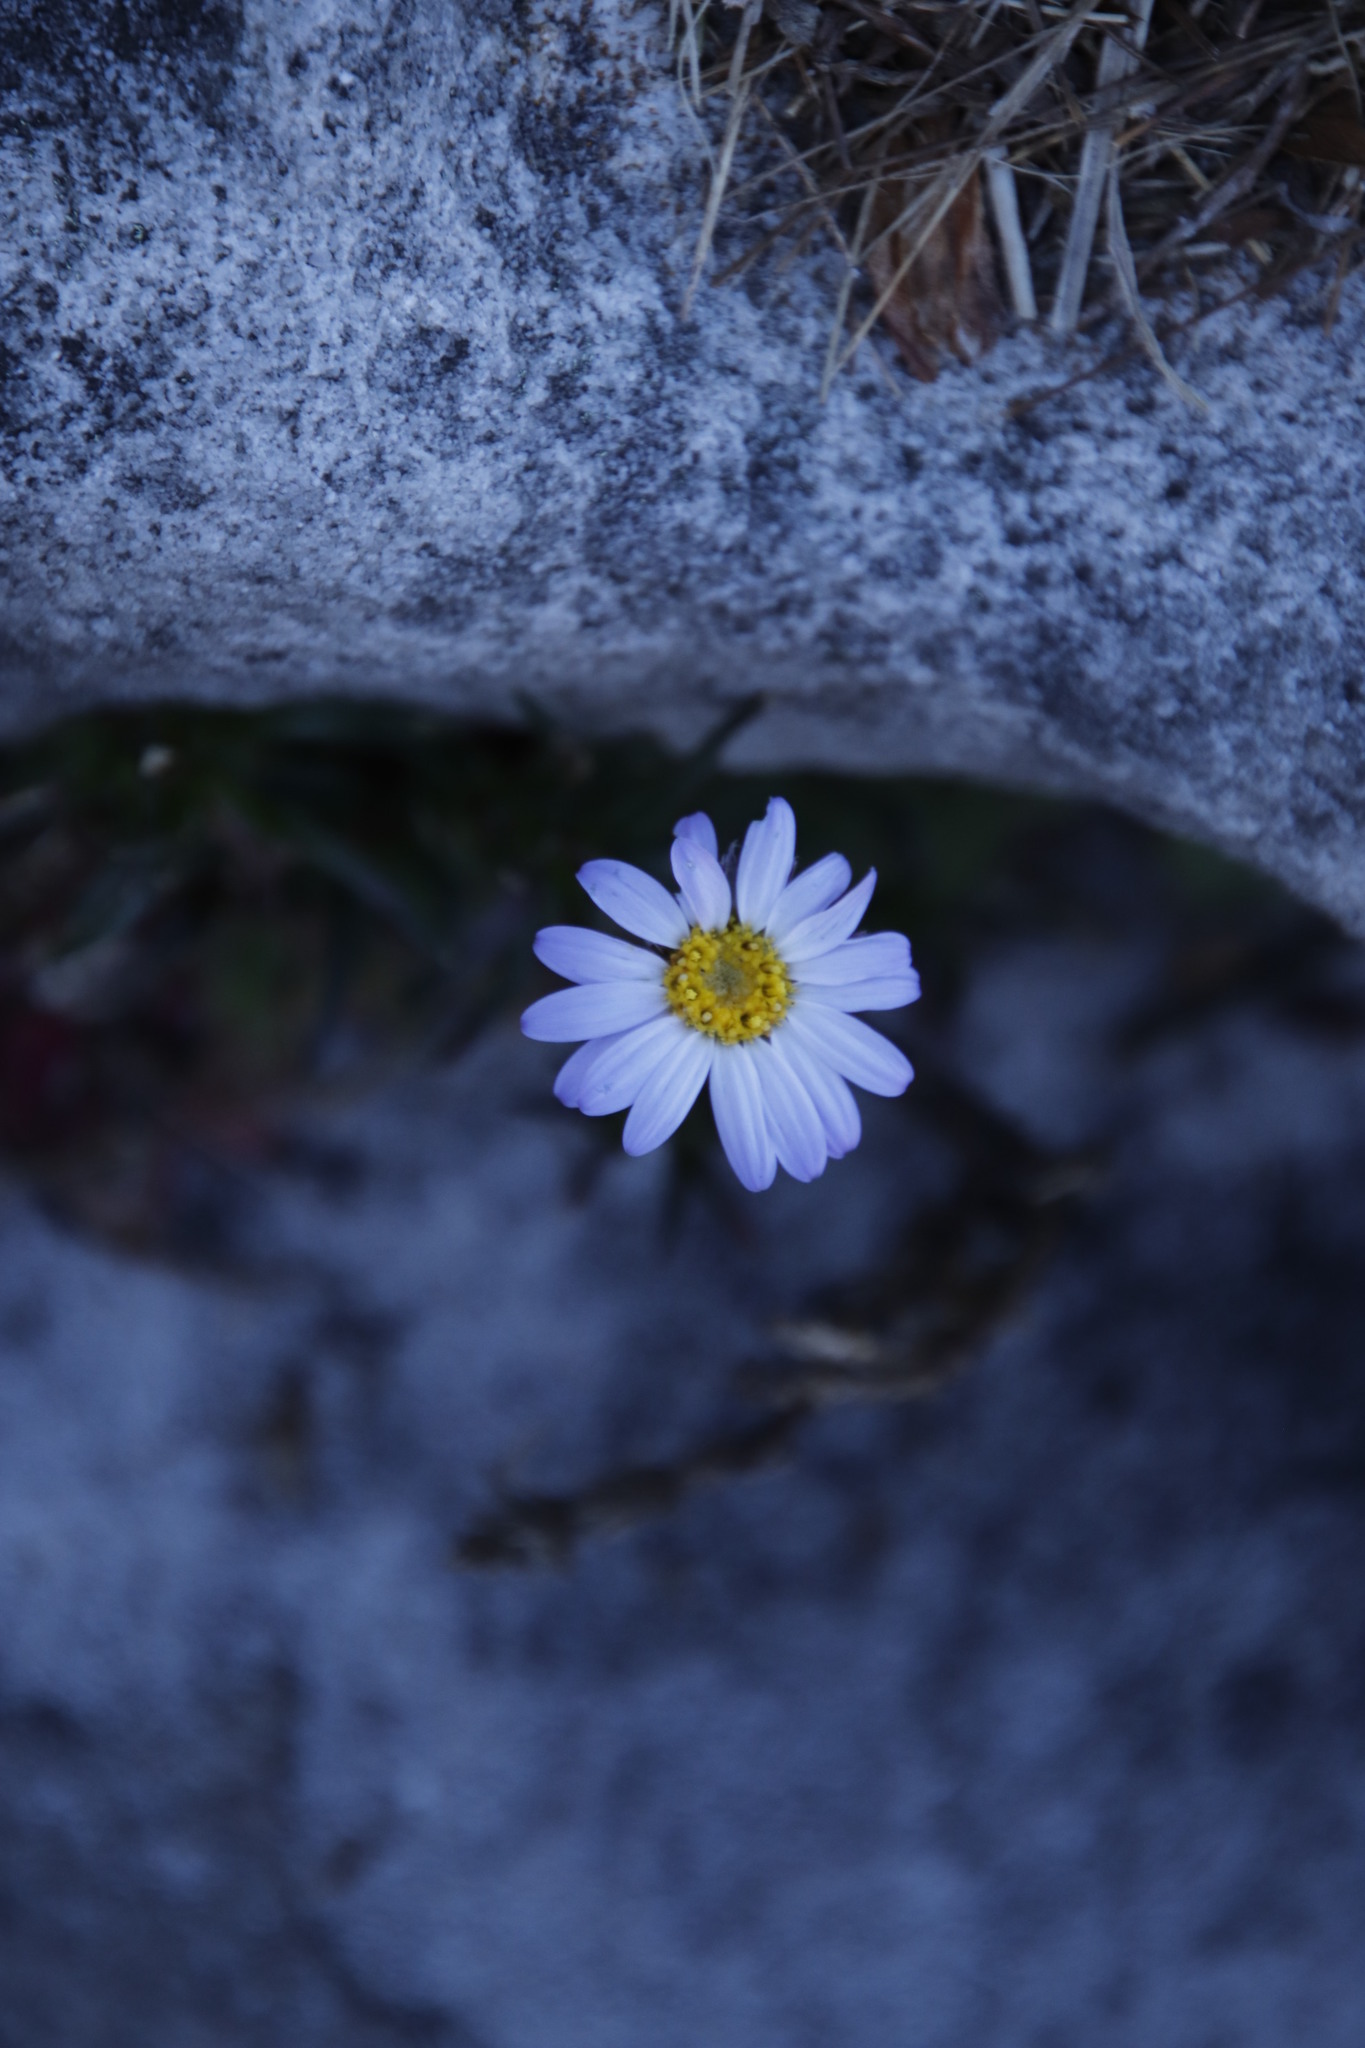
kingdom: Plantae
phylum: Tracheophyta
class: Magnoliopsida
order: Asterales
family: Asteraceae
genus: Zyrphelis
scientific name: Zyrphelis taxifolia
